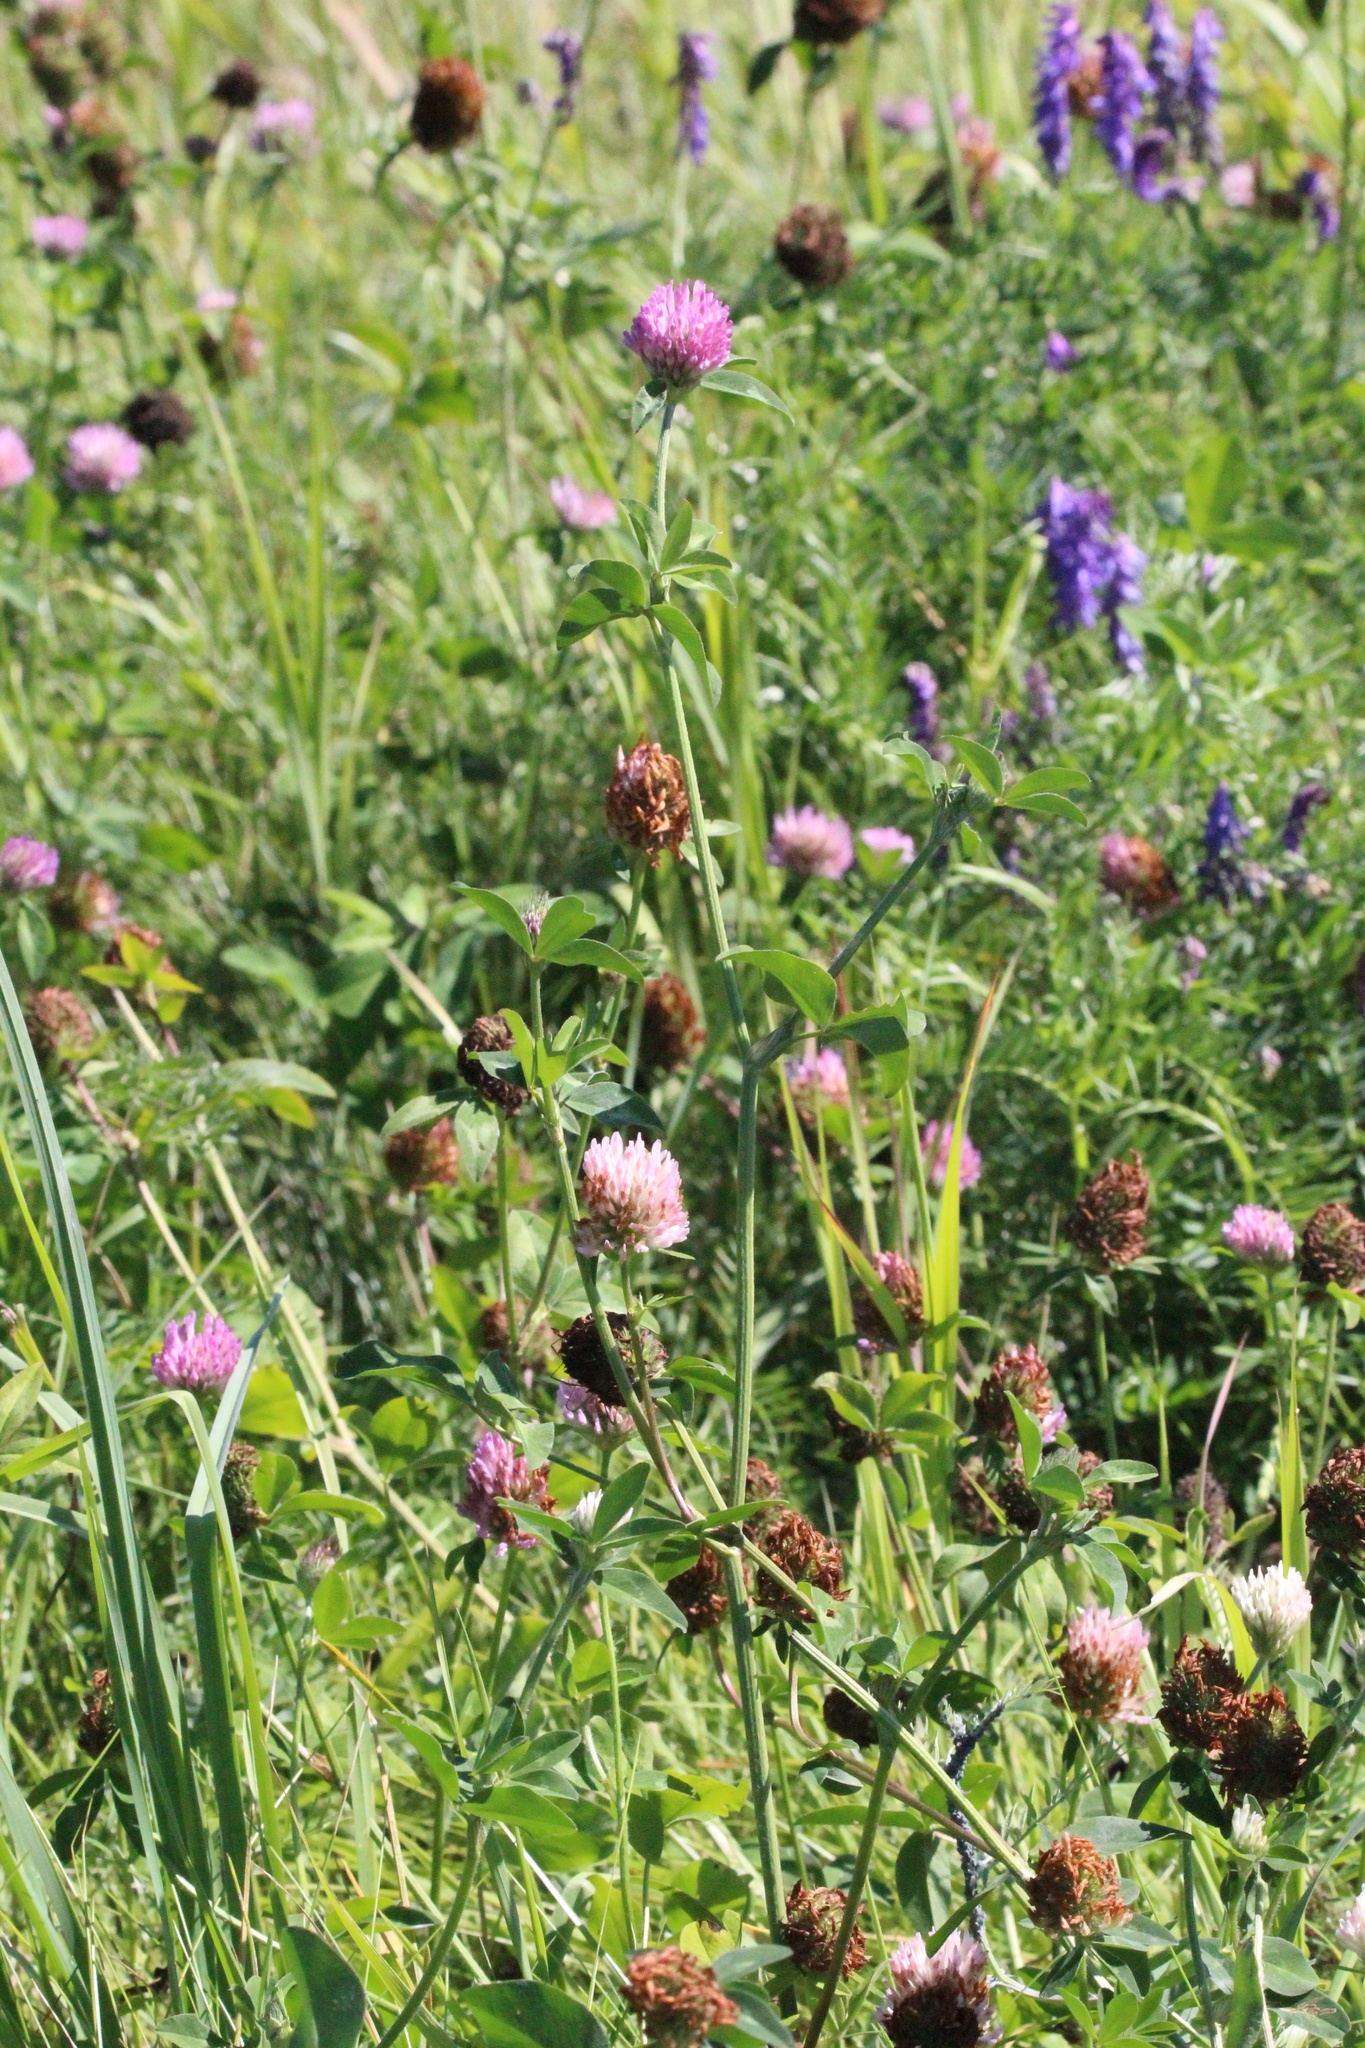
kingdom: Plantae
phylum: Tracheophyta
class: Magnoliopsida
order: Fabales
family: Fabaceae
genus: Trifolium
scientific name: Trifolium pratense
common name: Red clover
